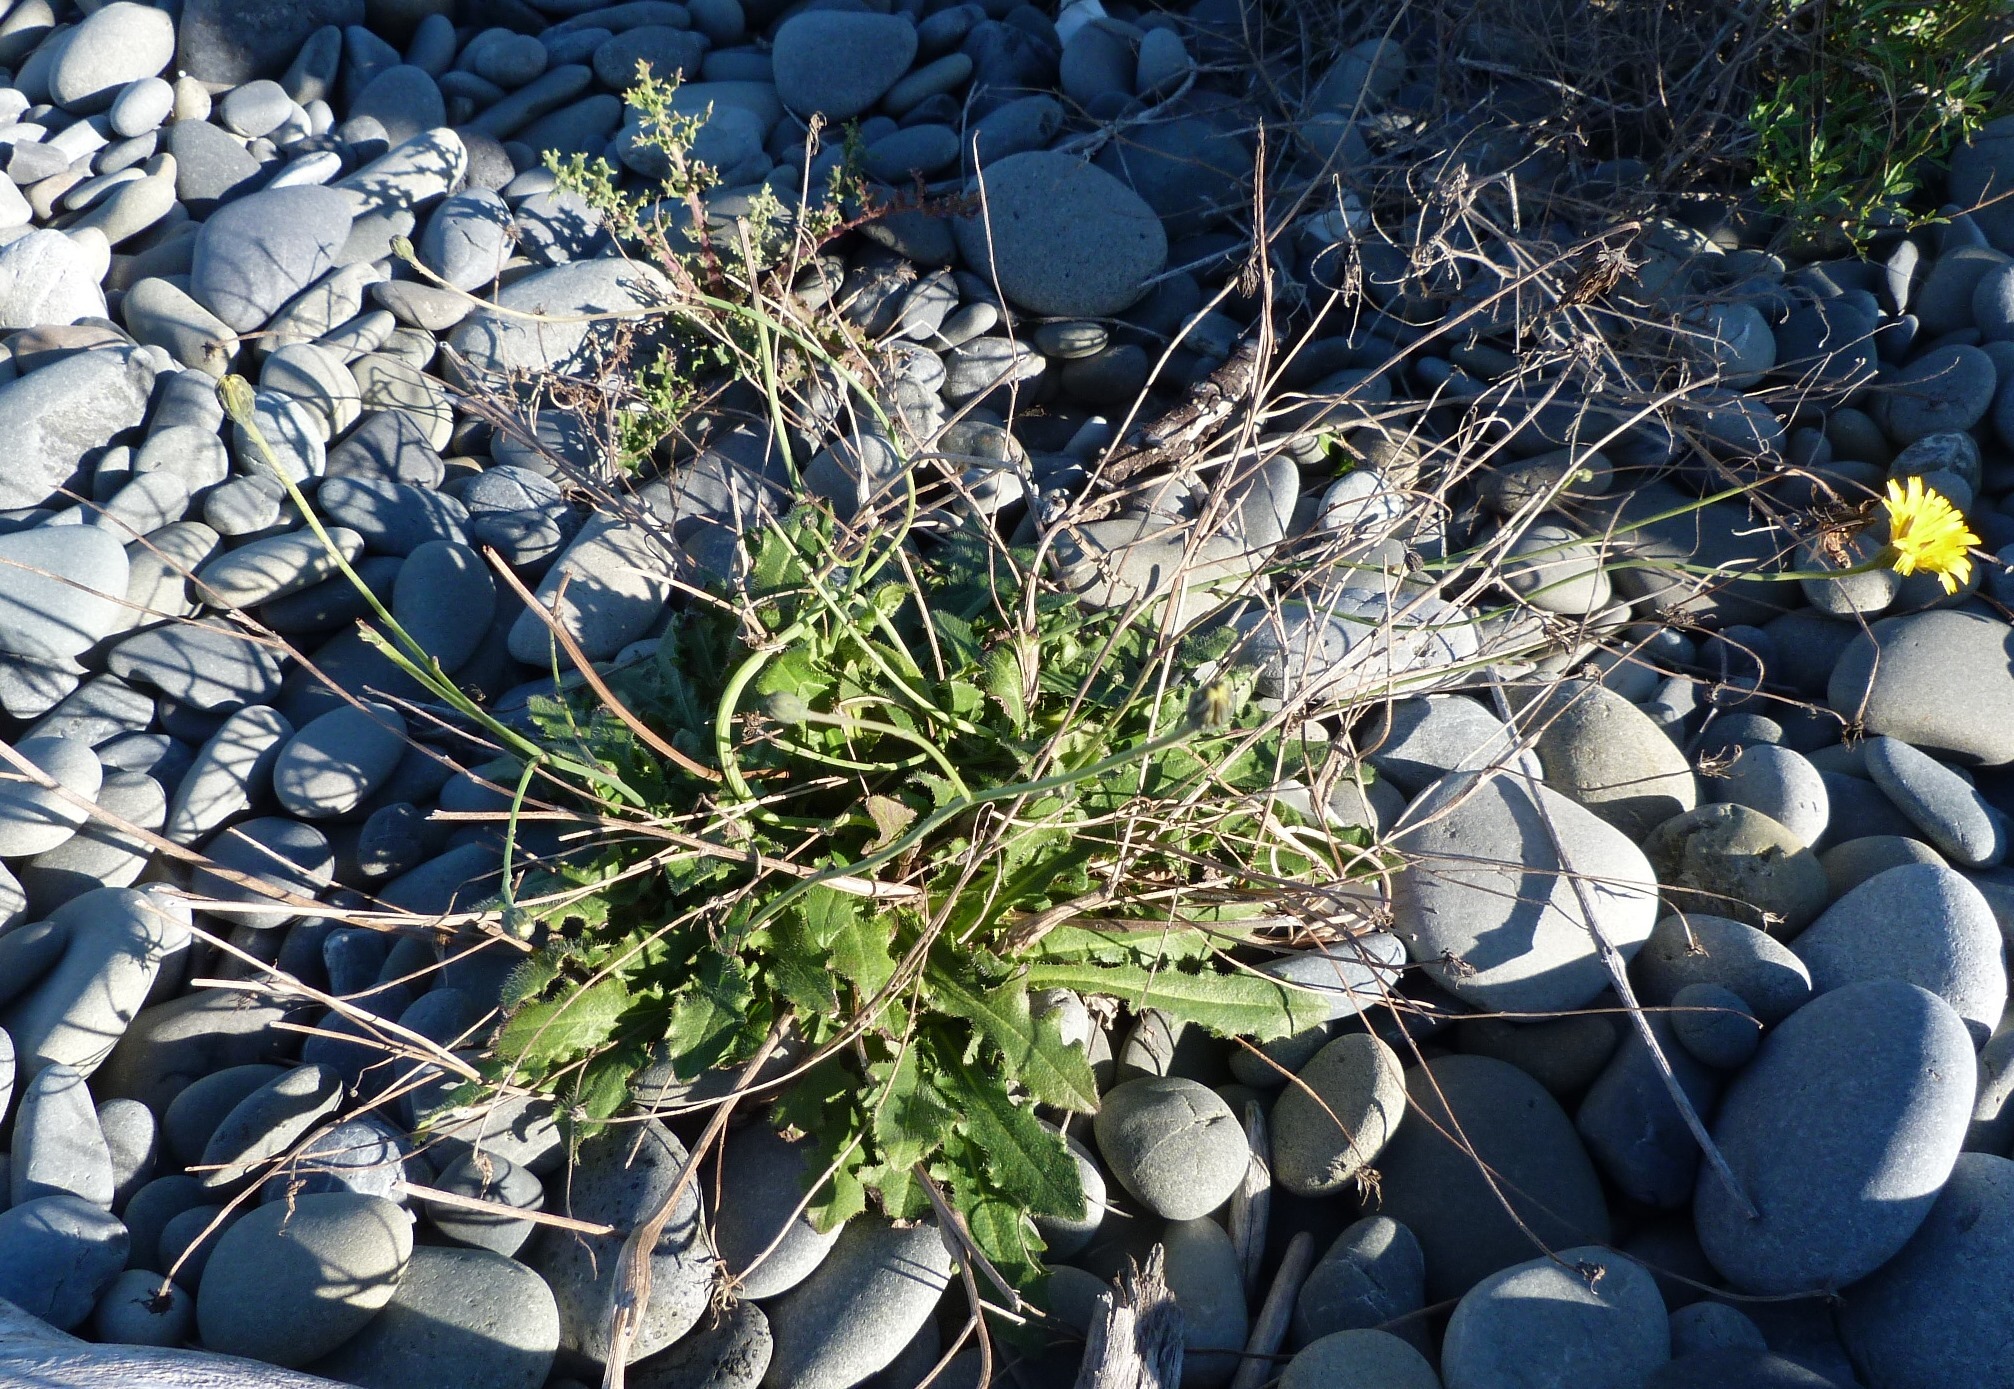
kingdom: Plantae
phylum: Tracheophyta
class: Magnoliopsida
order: Asterales
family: Asteraceae
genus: Hypochaeris
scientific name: Hypochaeris radicata
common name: Flatweed
